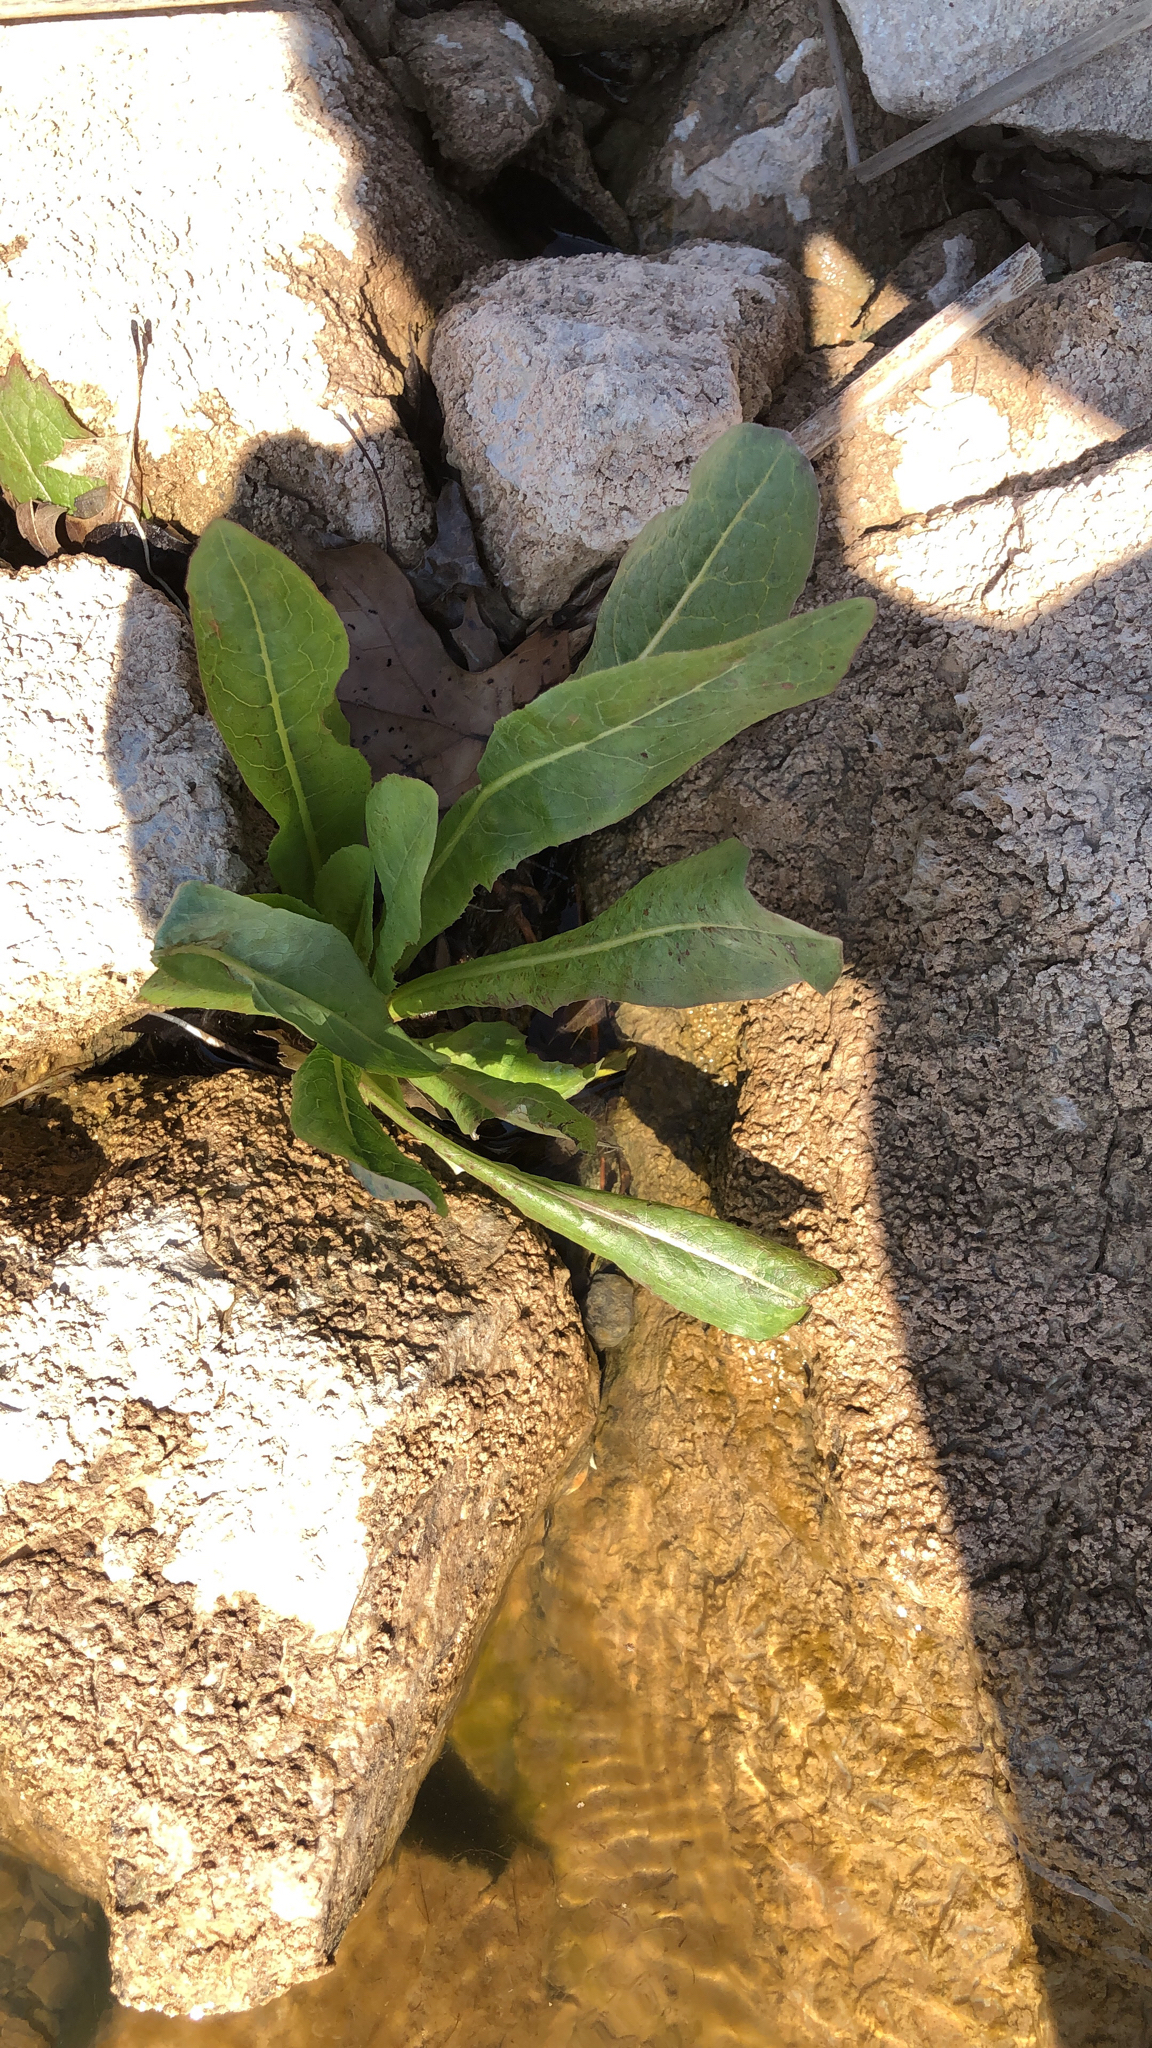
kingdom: Plantae
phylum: Tracheophyta
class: Magnoliopsida
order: Asterales
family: Asteraceae
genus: Lactuca
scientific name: Lactuca serriola
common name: Prickly lettuce
